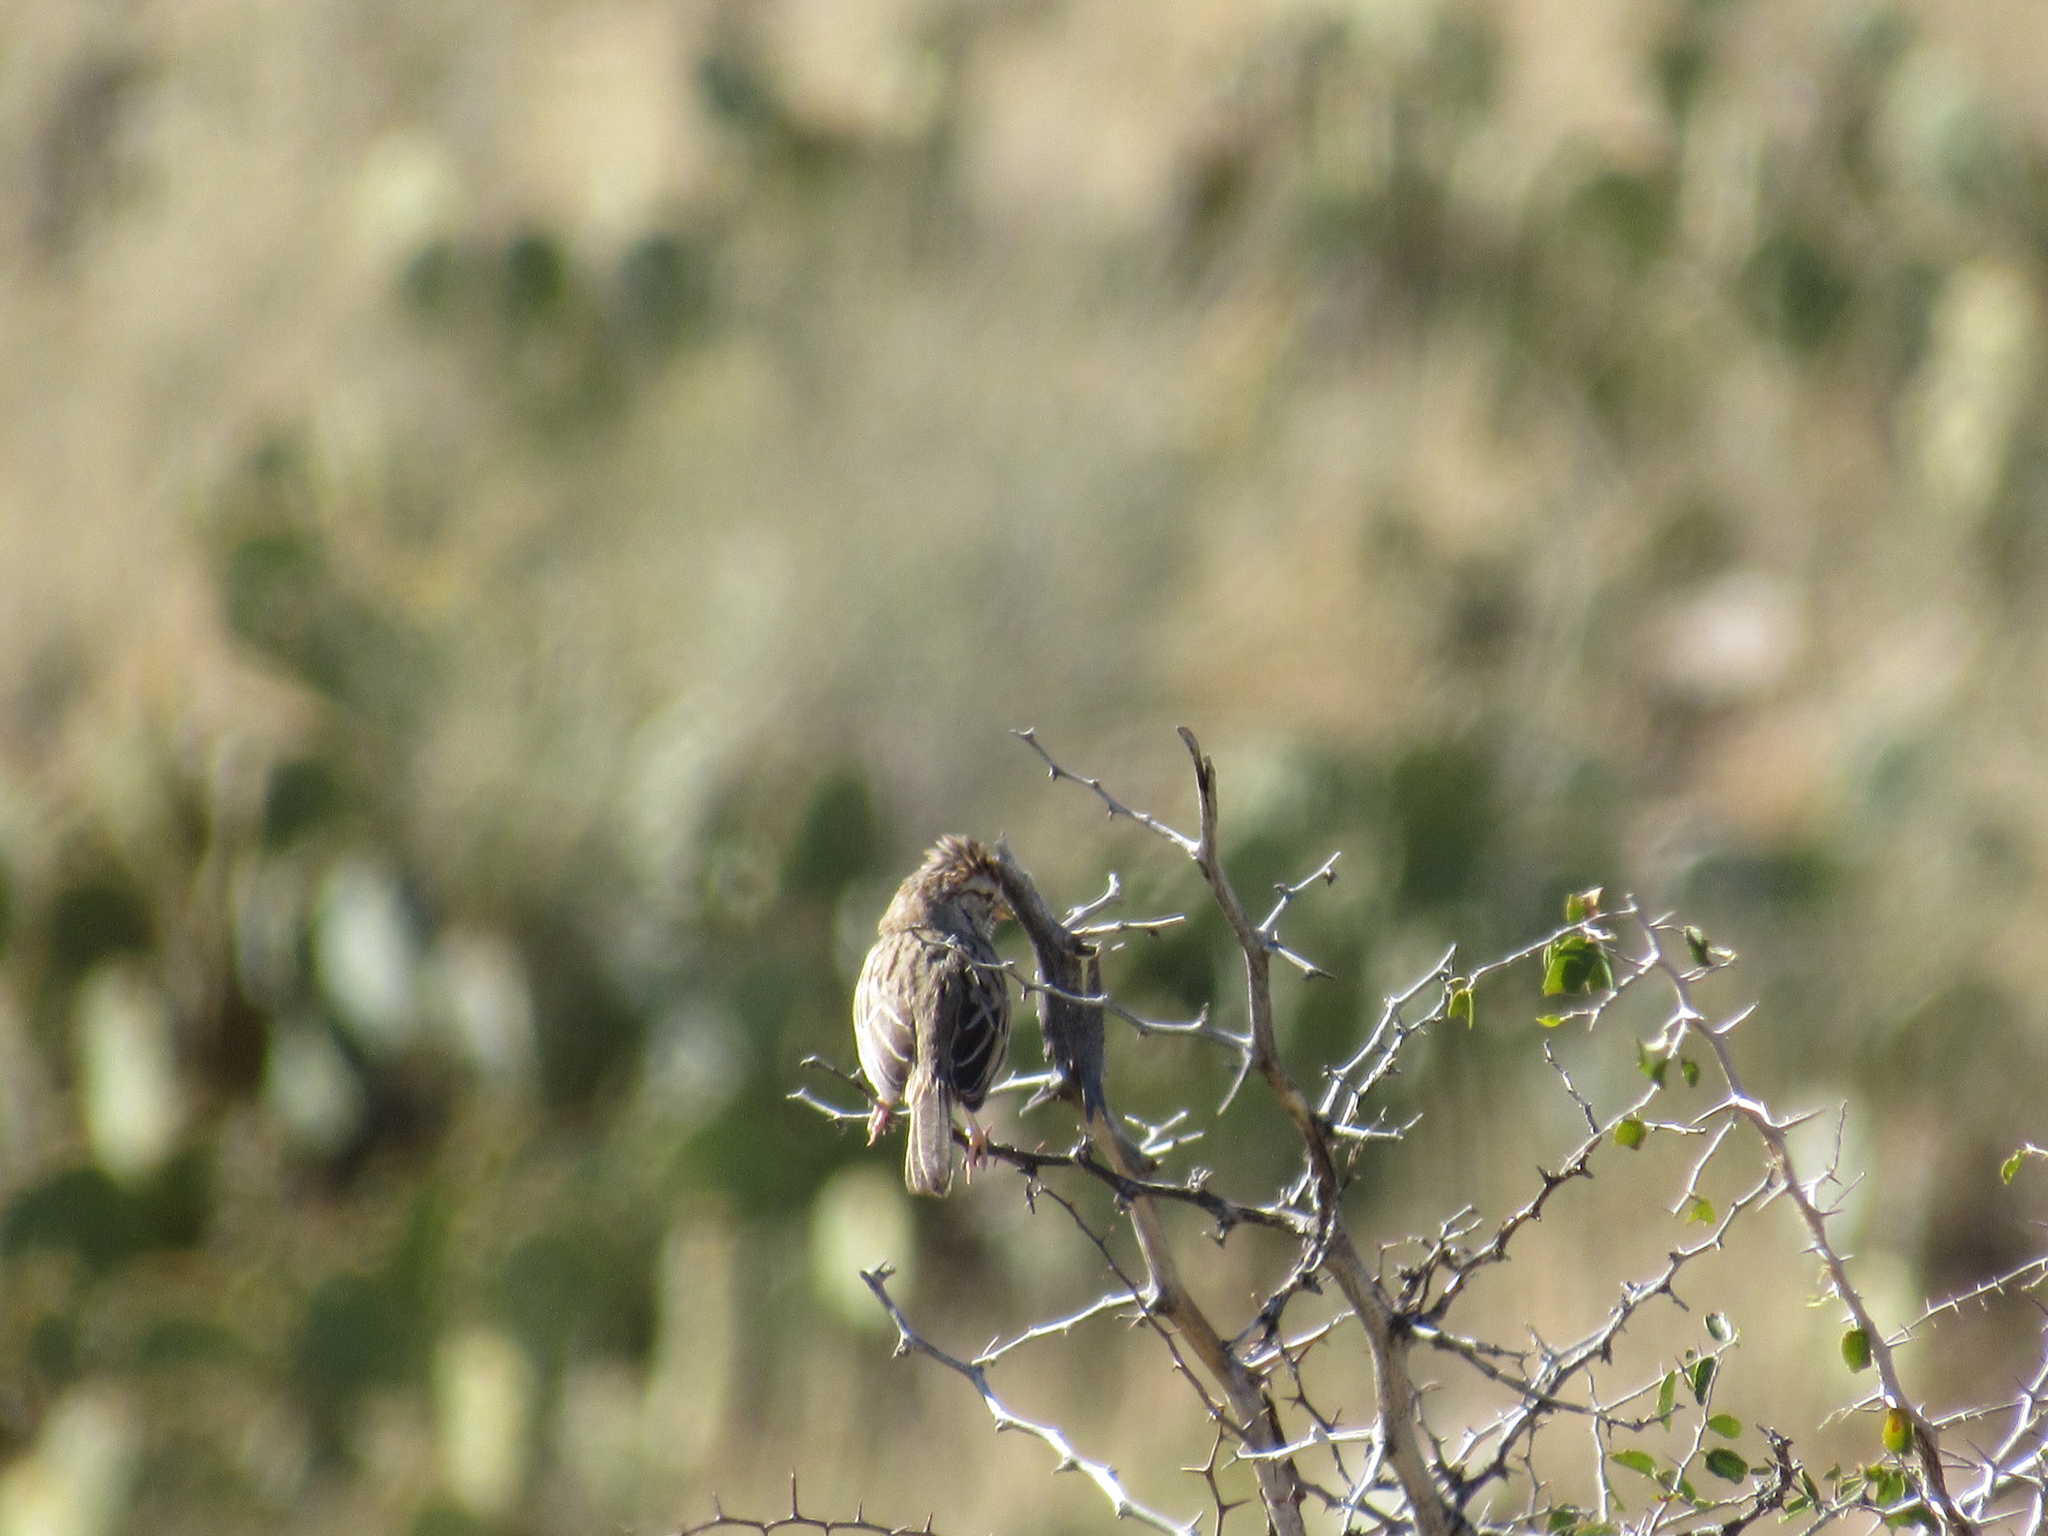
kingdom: Animalia
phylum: Chordata
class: Aves
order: Passeriformes
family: Passerellidae
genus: Peucaea
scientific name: Peucaea carpalis
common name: Rufous-winged sparrow
